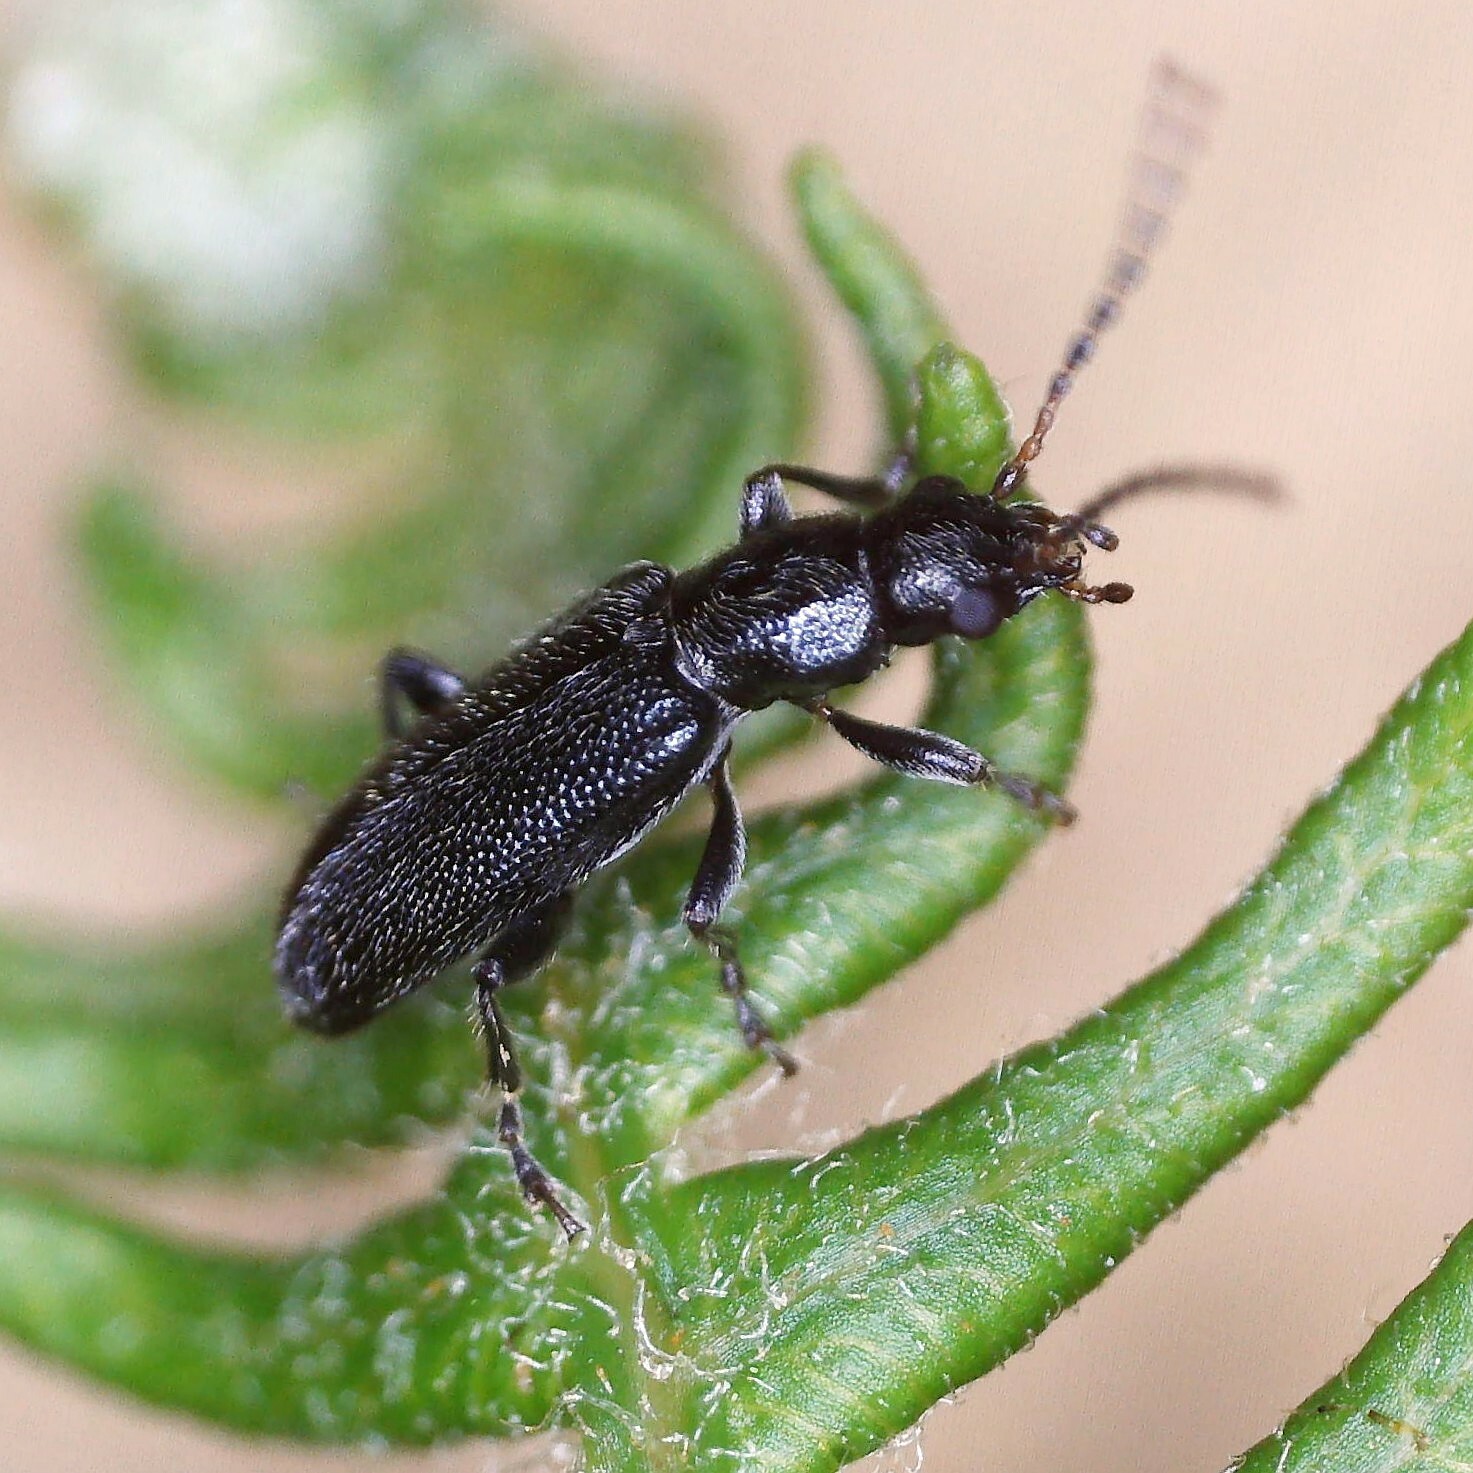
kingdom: Animalia
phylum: Arthropoda
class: Insecta
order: Coleoptera
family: Orsodacnidae
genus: Orsodacne
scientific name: Orsodacne humeralis
